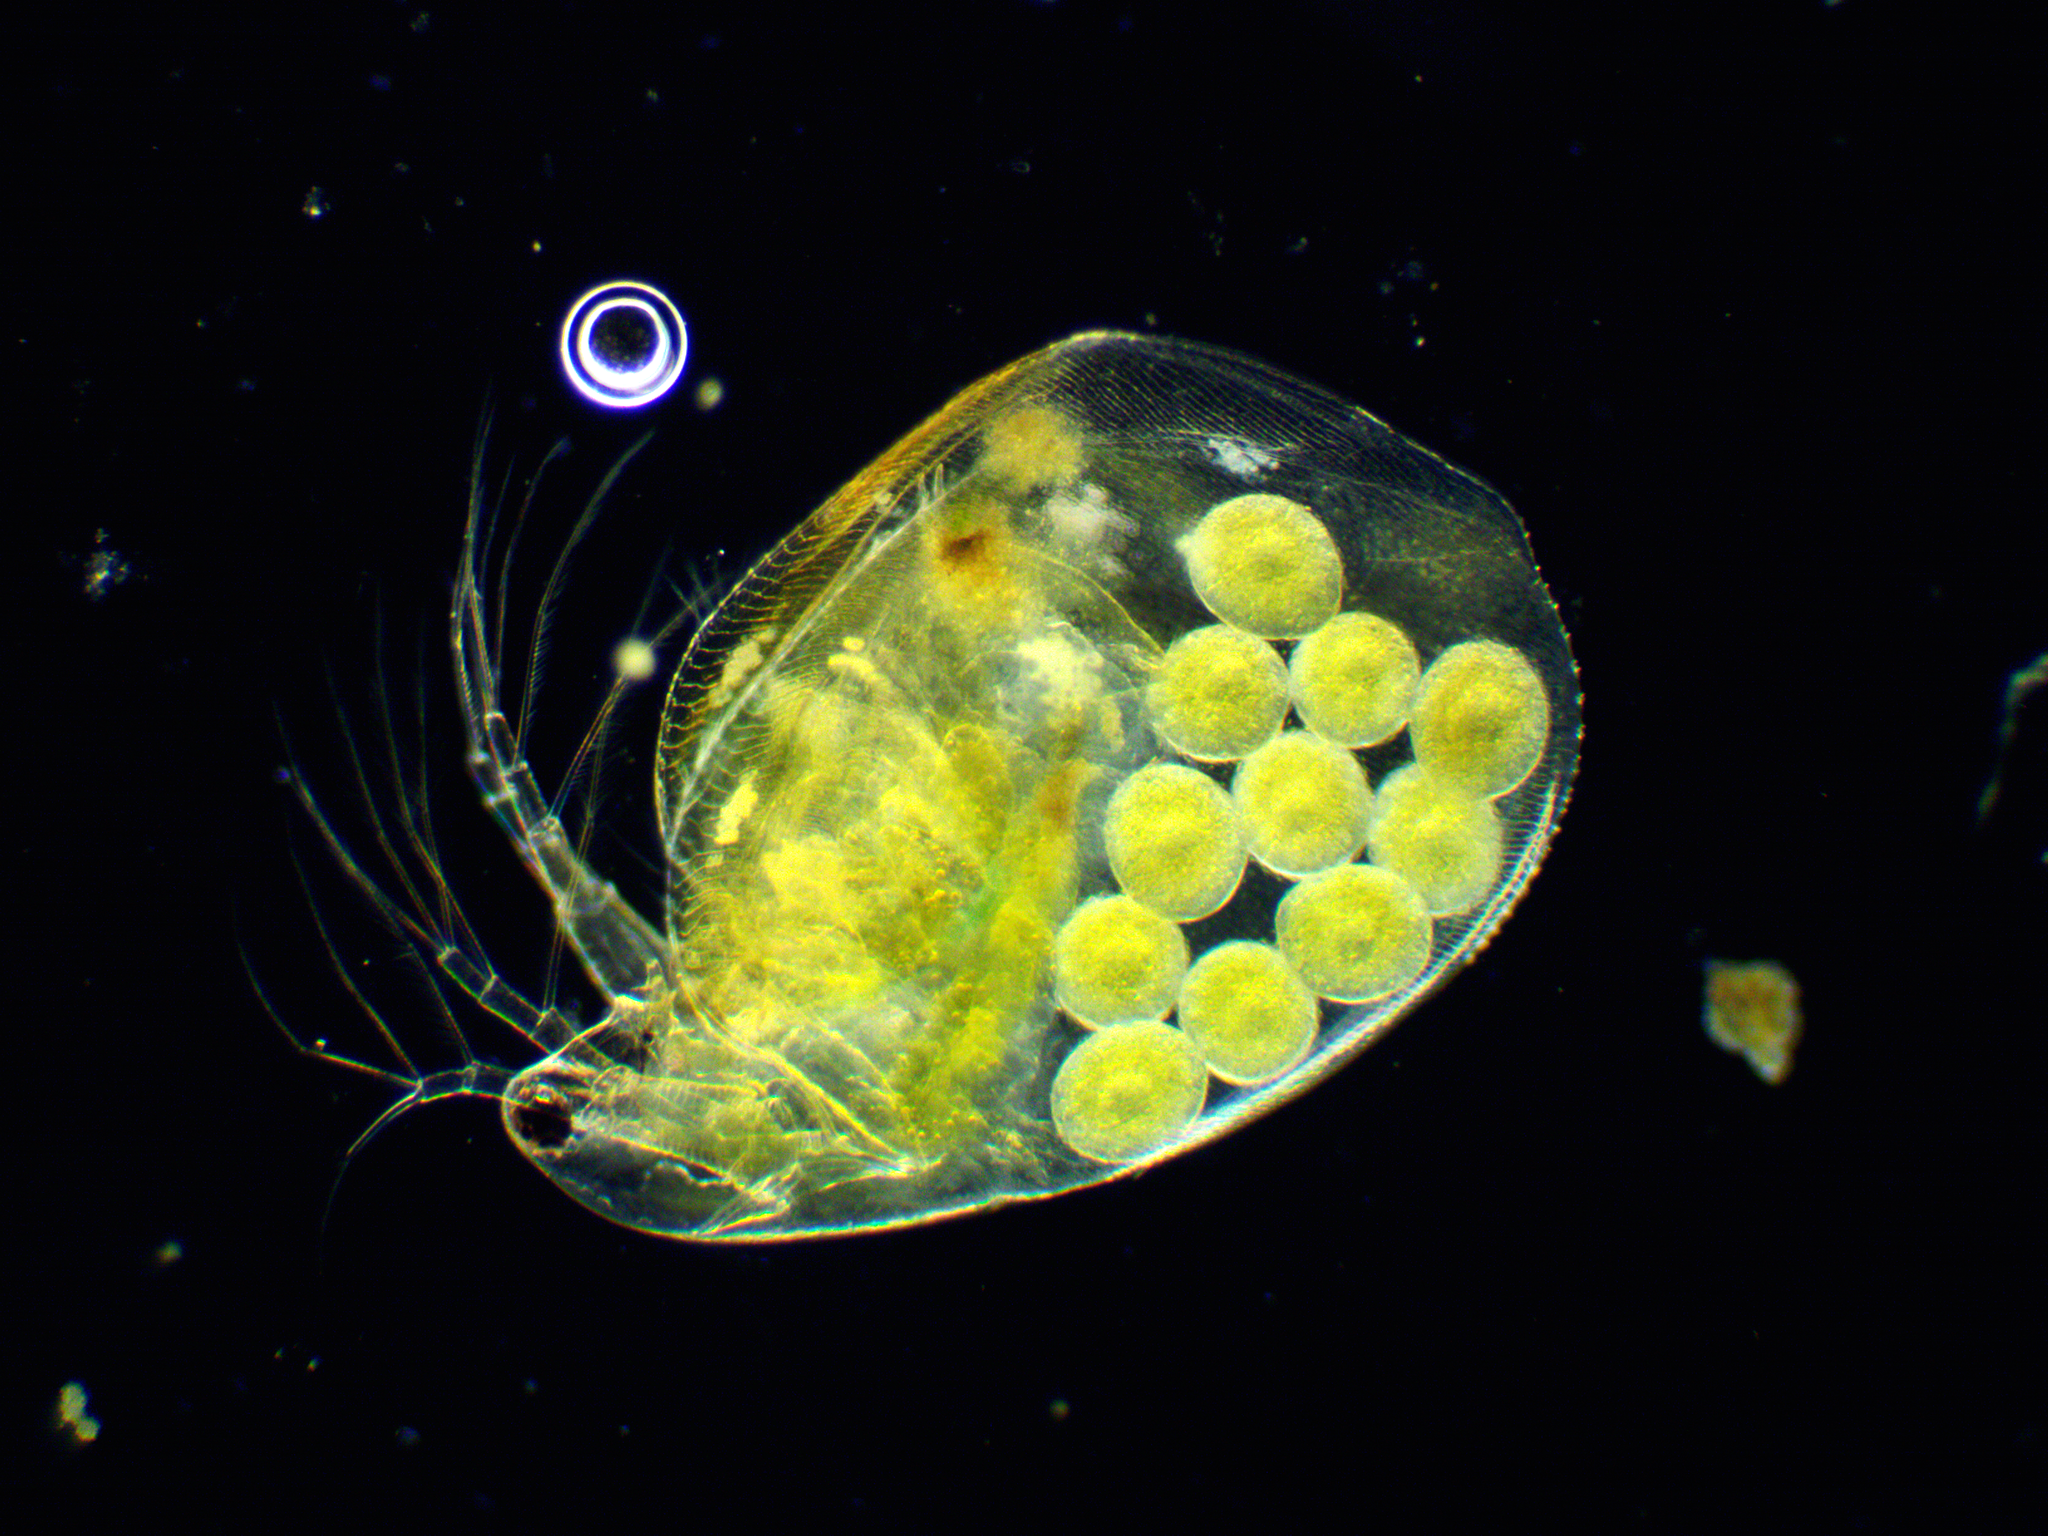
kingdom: Animalia
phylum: Arthropoda
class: Branchiopoda
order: Diplostraca
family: Daphniidae
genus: Simocephalus
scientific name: Simocephalus vetulus
